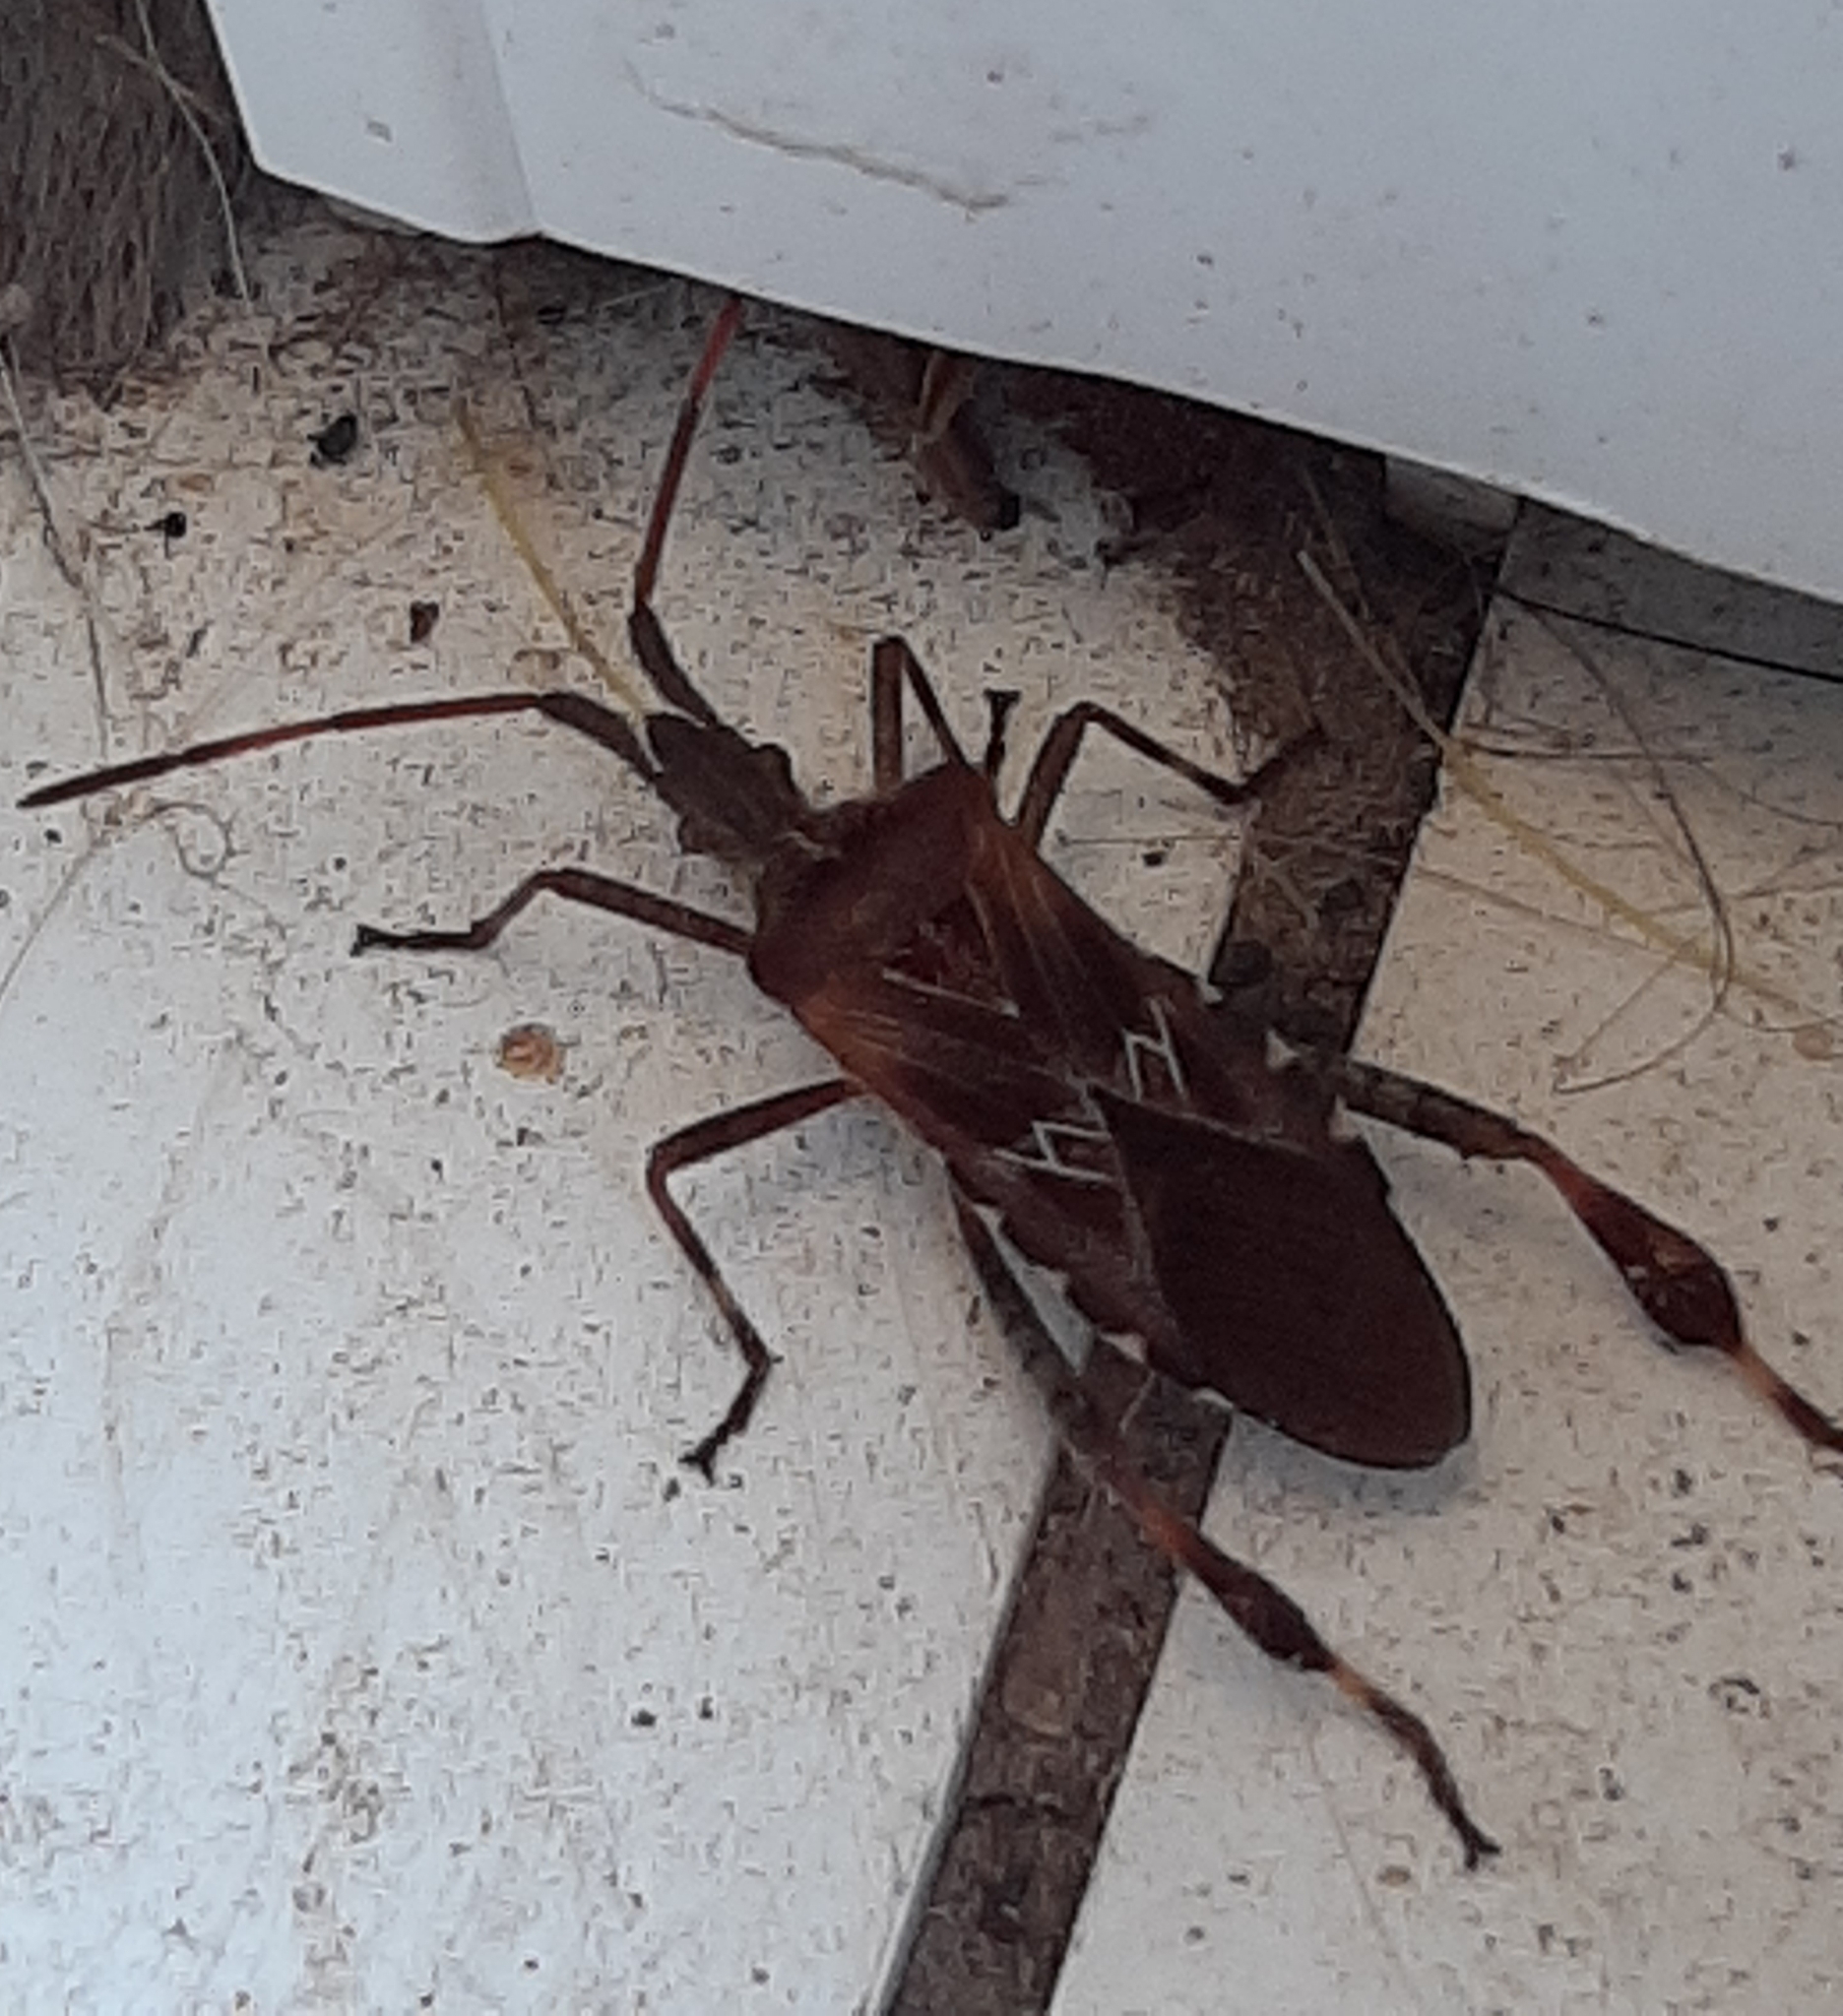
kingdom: Animalia
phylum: Arthropoda
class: Insecta
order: Hemiptera
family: Coreidae
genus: Leptoglossus
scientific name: Leptoglossus occidentalis
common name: Western conifer-seed bug
